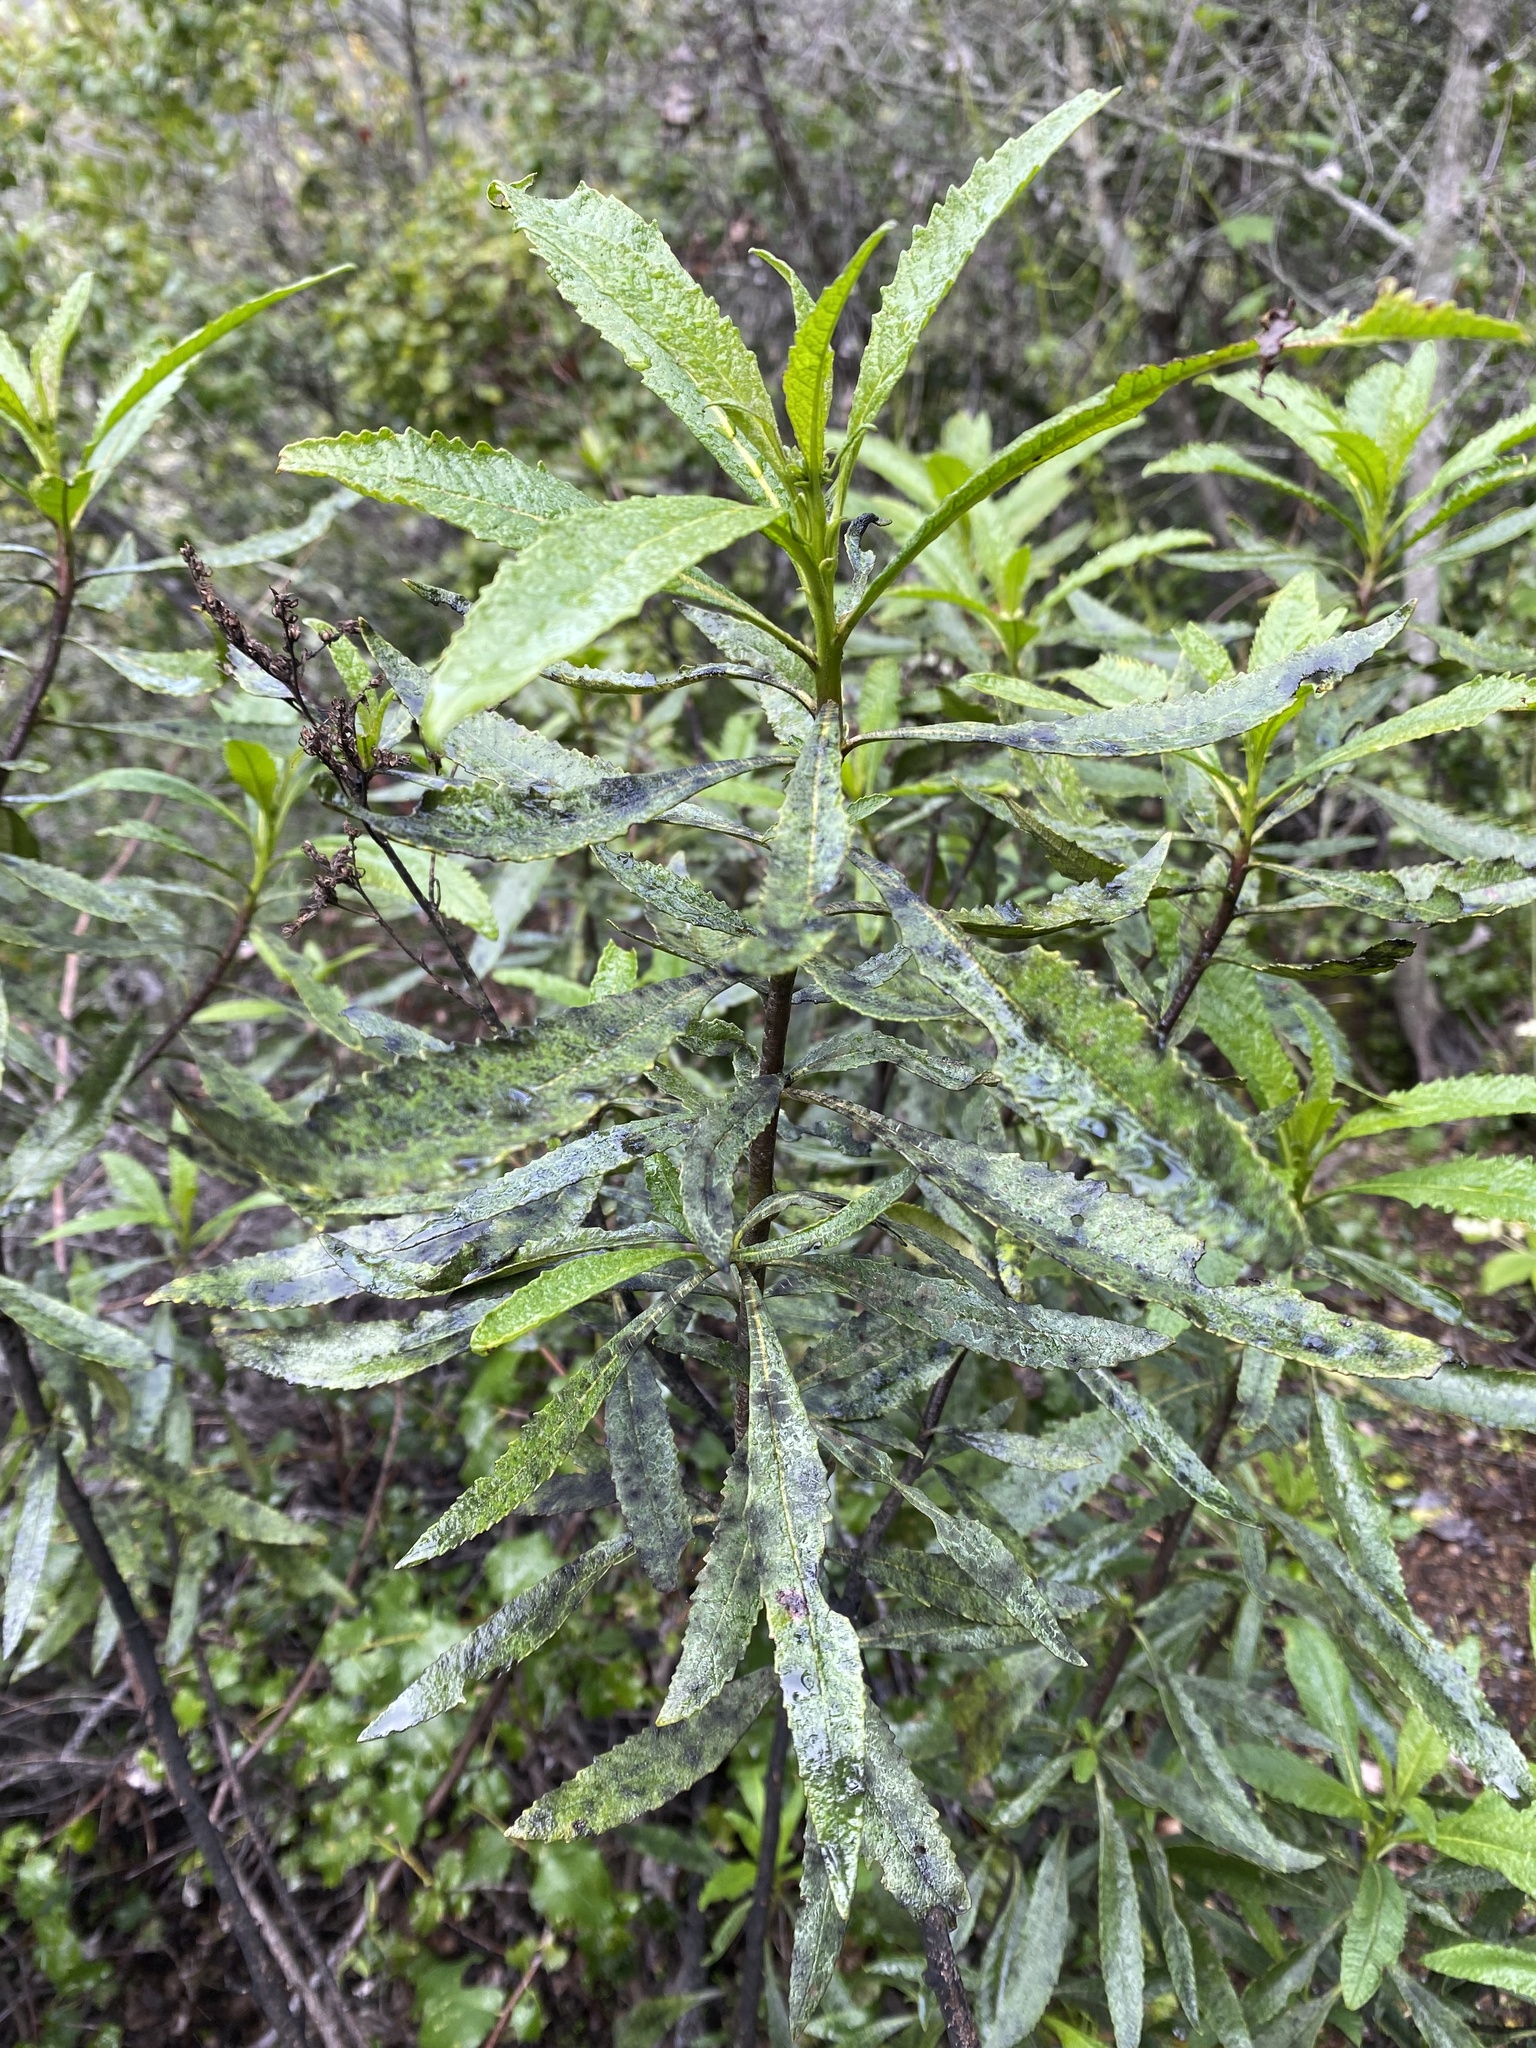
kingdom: Plantae
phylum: Tracheophyta
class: Magnoliopsida
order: Boraginales
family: Namaceae
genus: Eriodictyon
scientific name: Eriodictyon californicum
